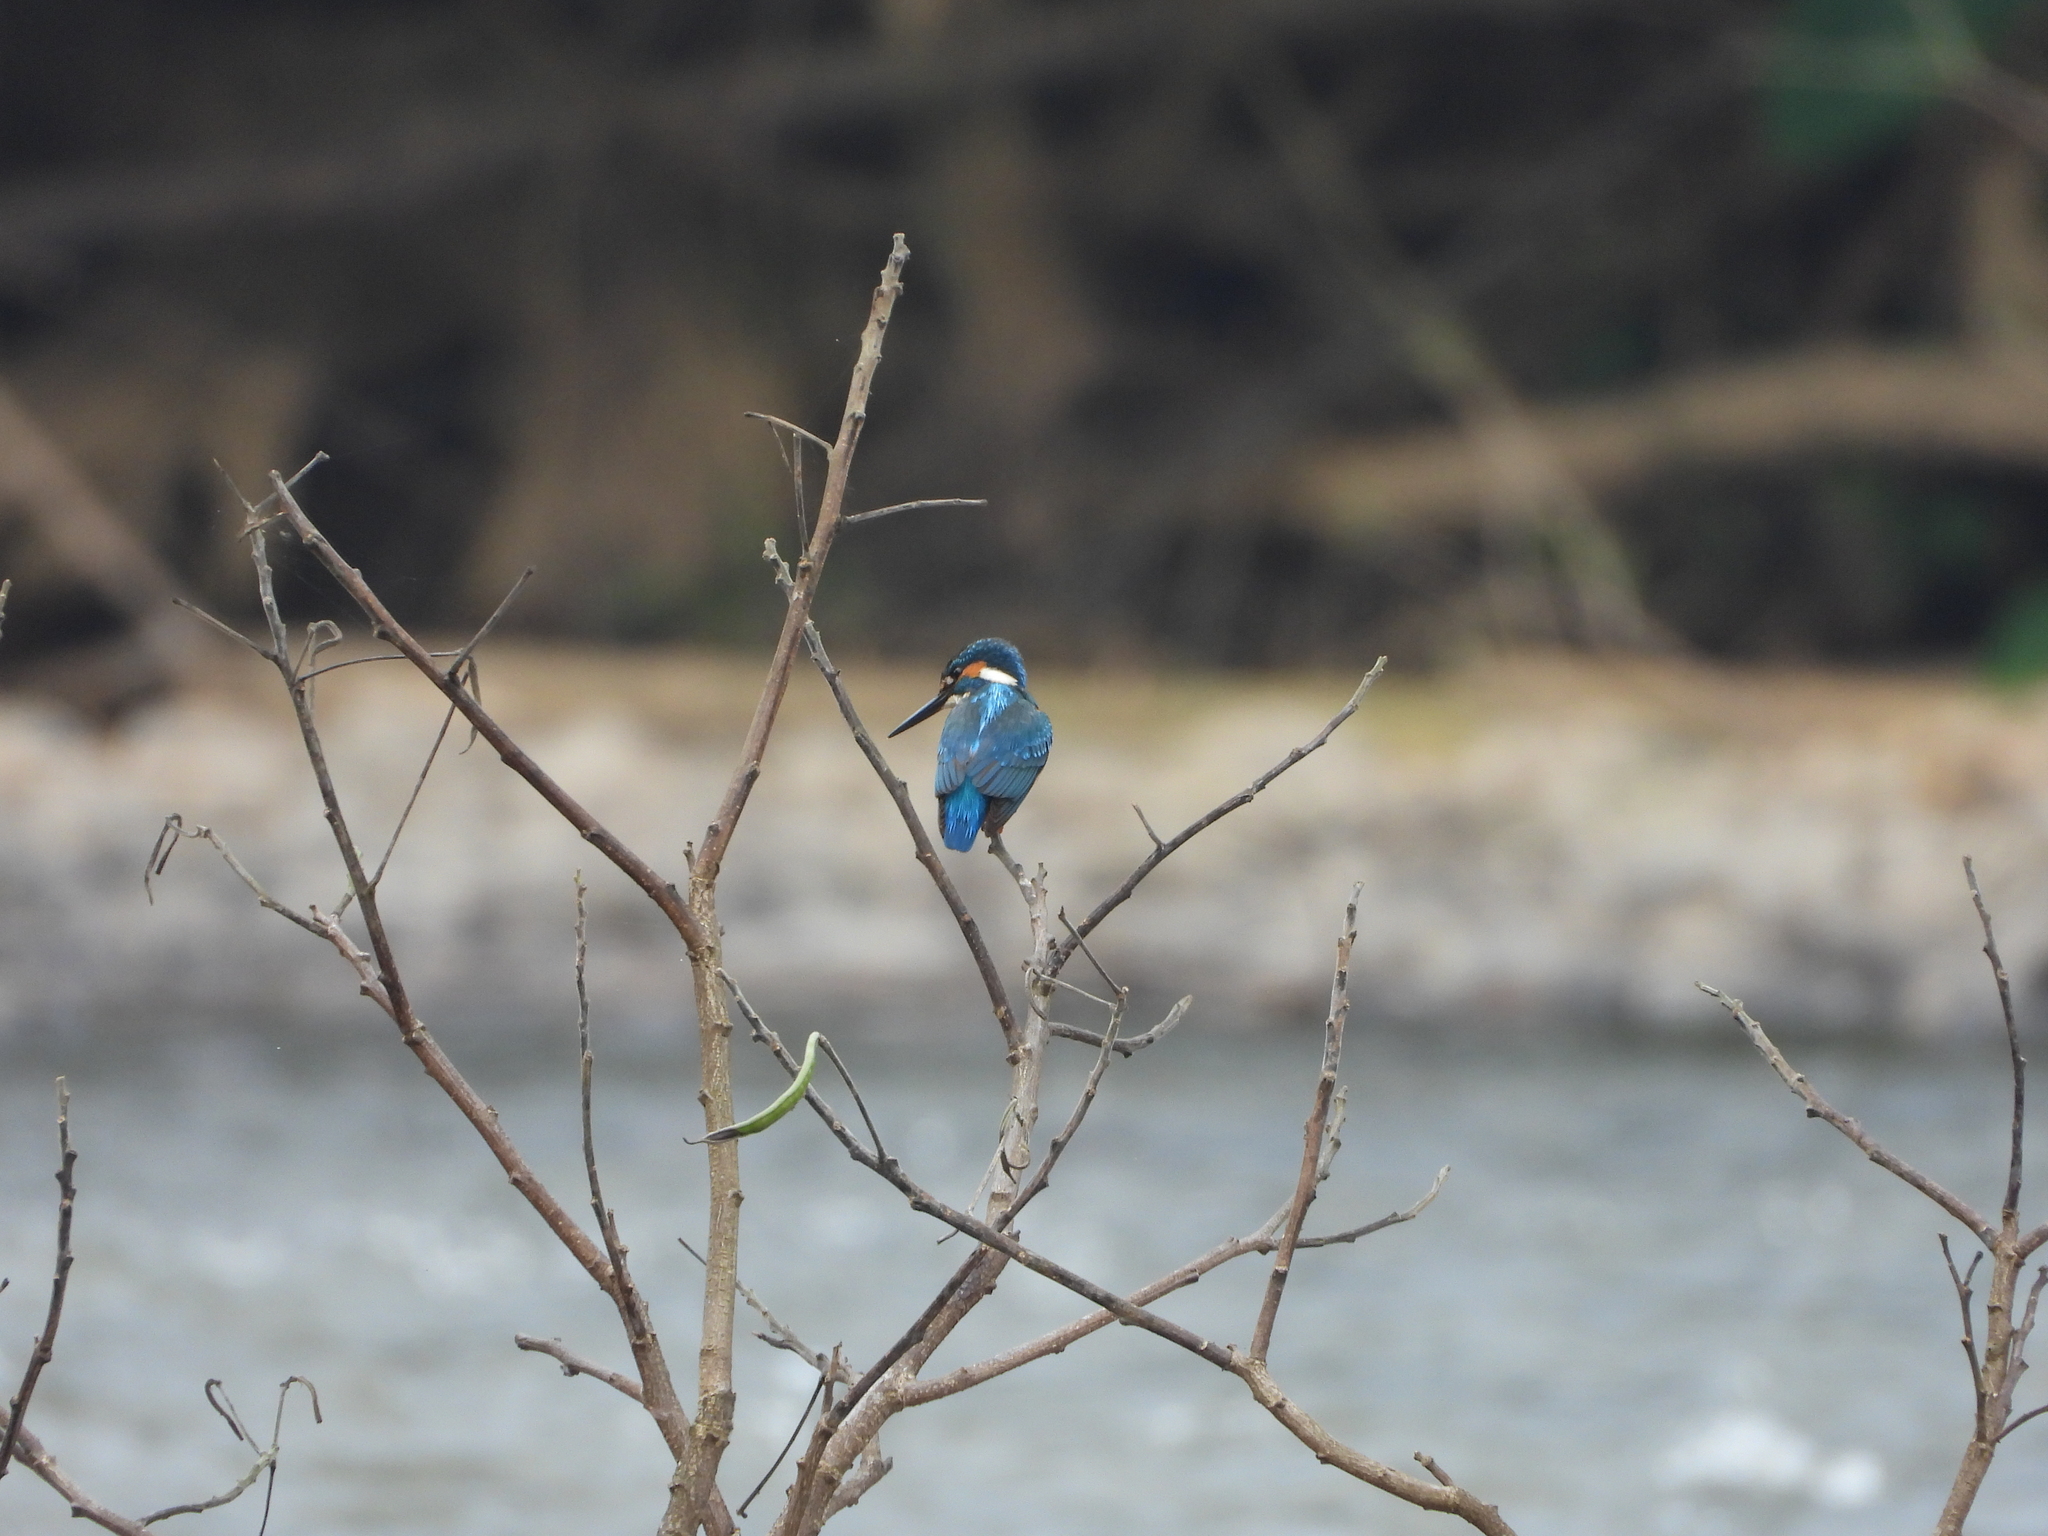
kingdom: Animalia
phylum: Chordata
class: Aves
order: Coraciiformes
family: Alcedinidae
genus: Alcedo
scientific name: Alcedo atthis
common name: Common kingfisher
